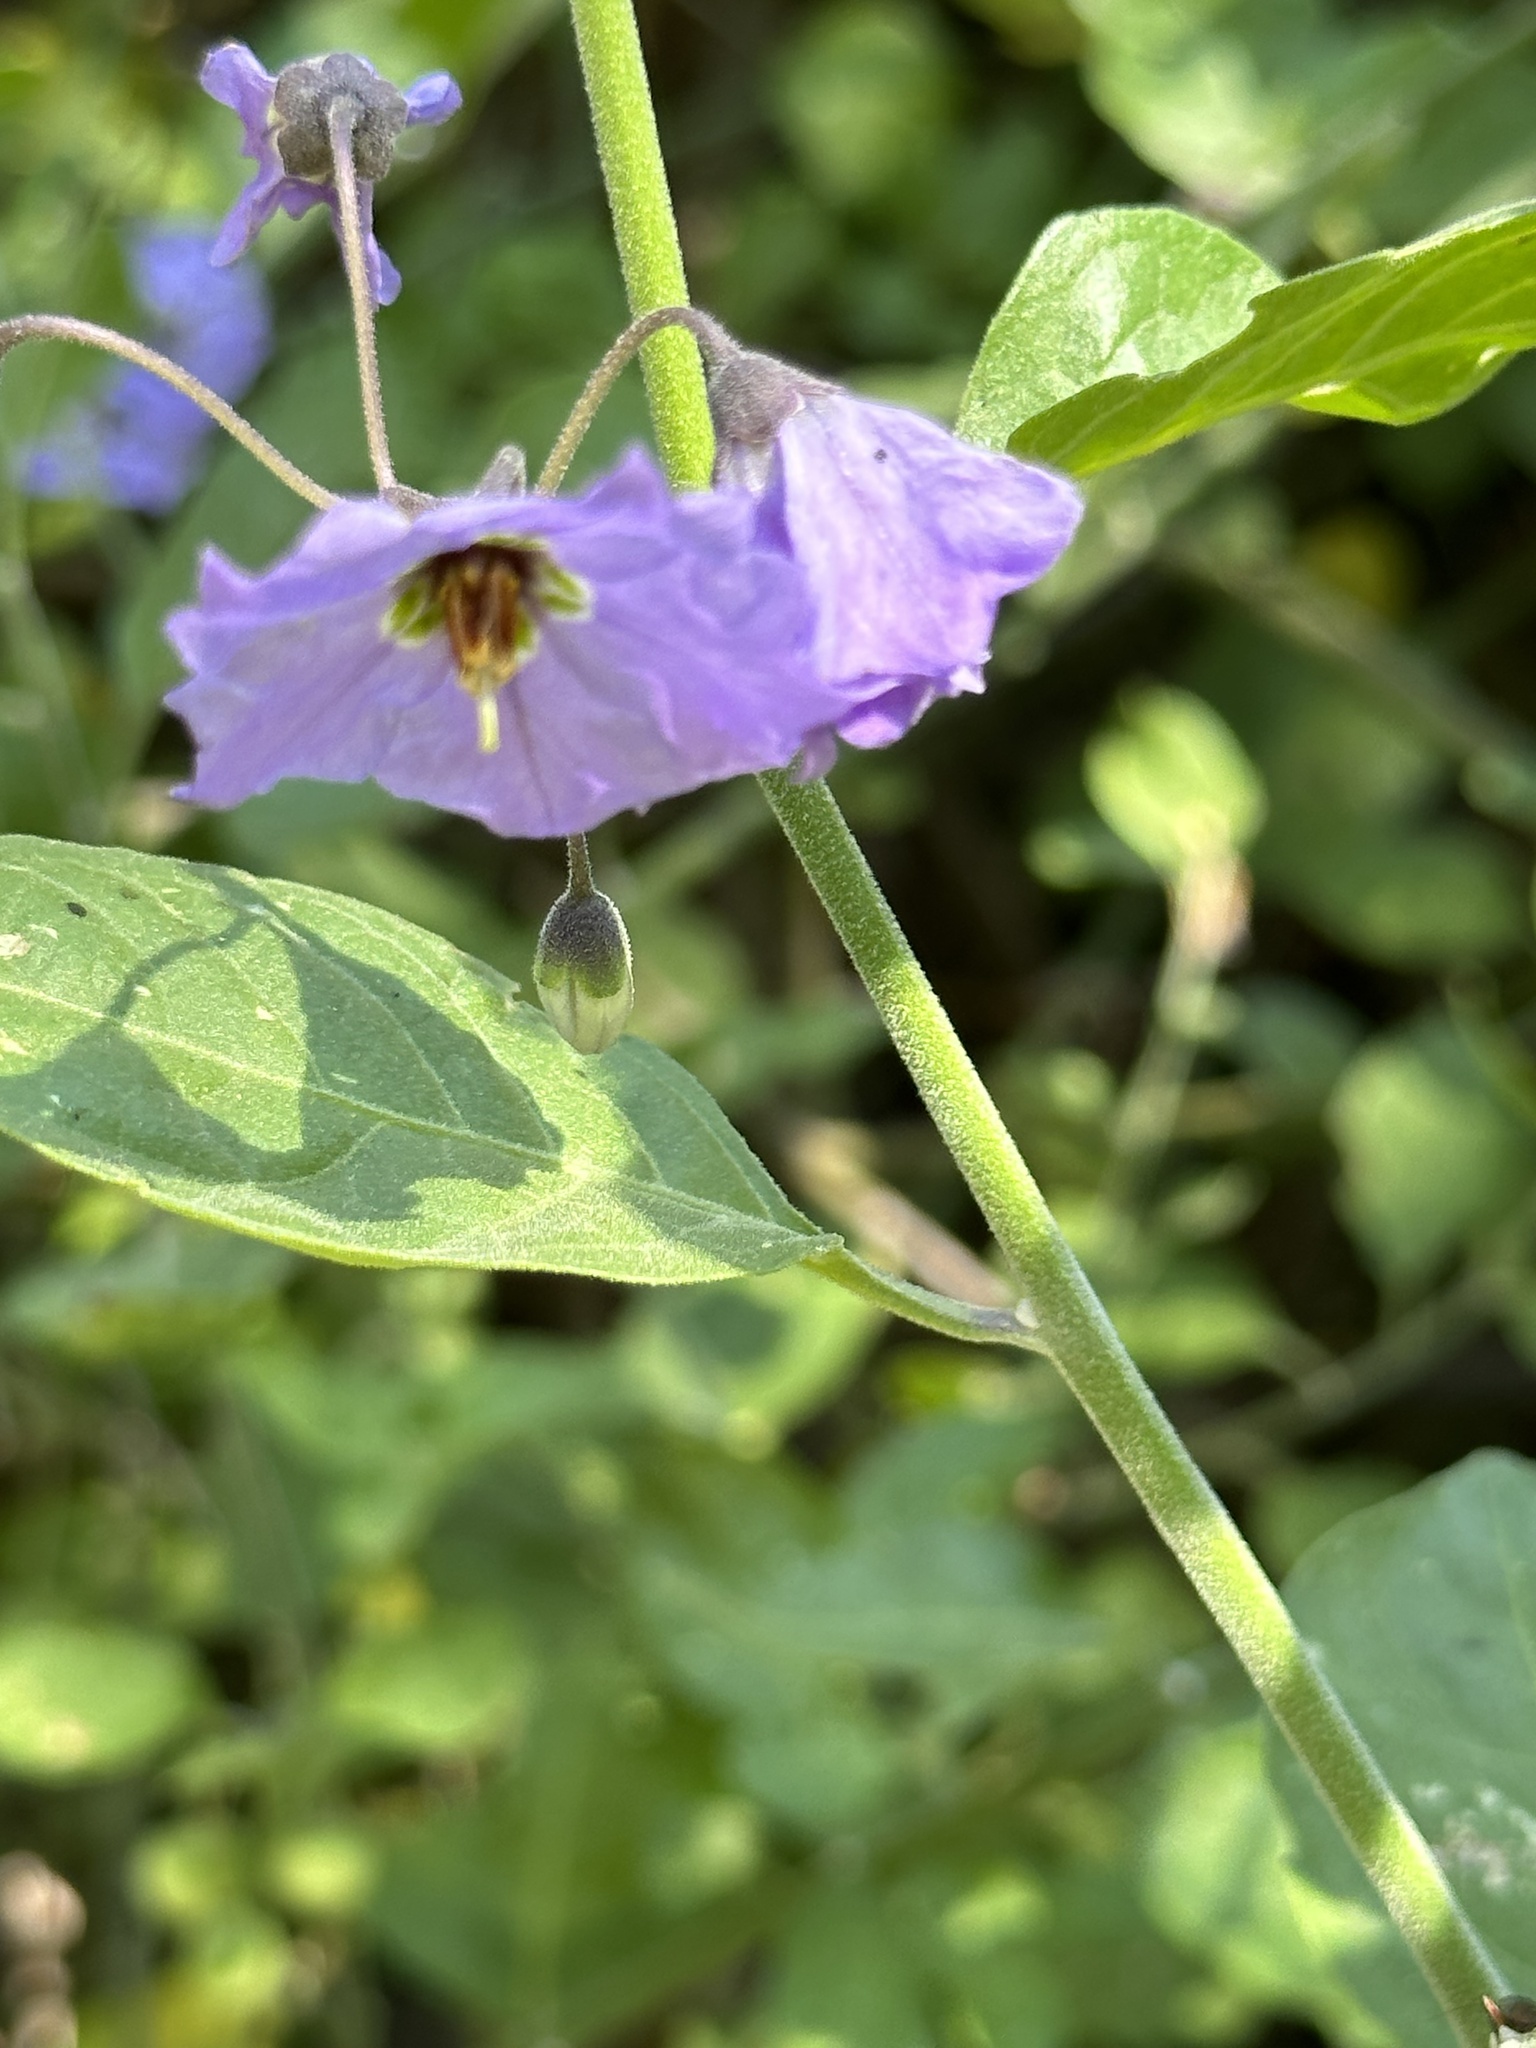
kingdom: Plantae
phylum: Tracheophyta
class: Magnoliopsida
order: Solanales
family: Solanaceae
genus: Solanum
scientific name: Solanum umbelliferum
